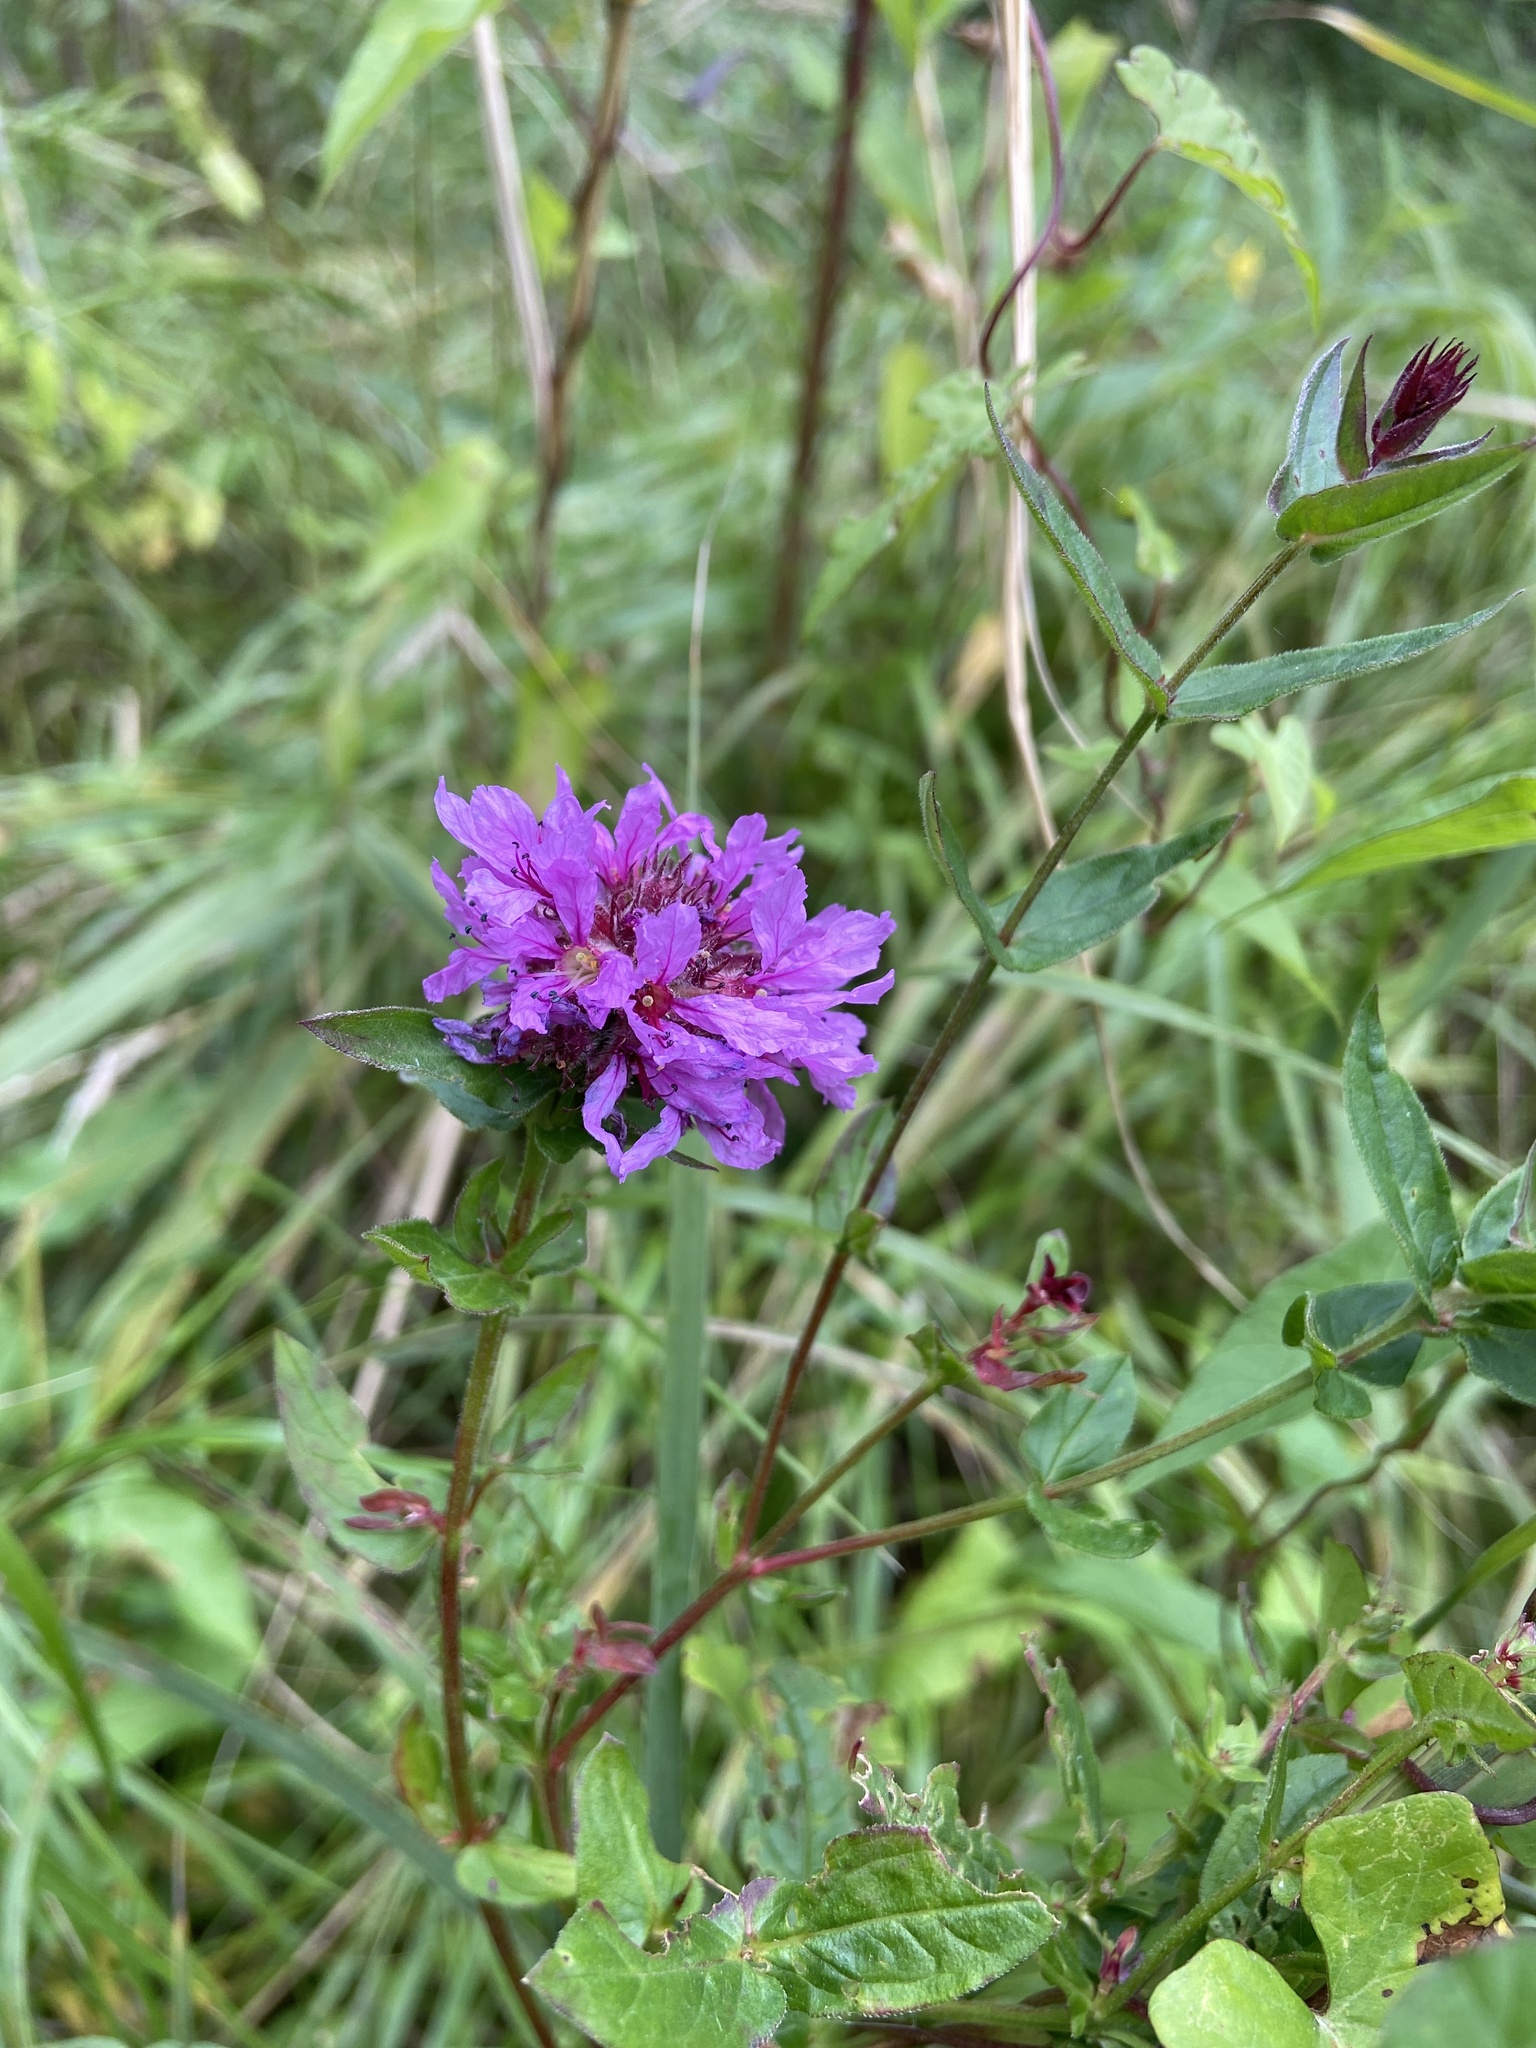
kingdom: Plantae
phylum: Tracheophyta
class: Magnoliopsida
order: Myrtales
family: Lythraceae
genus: Lythrum
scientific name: Lythrum salicaria
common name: Purple loosestrife
